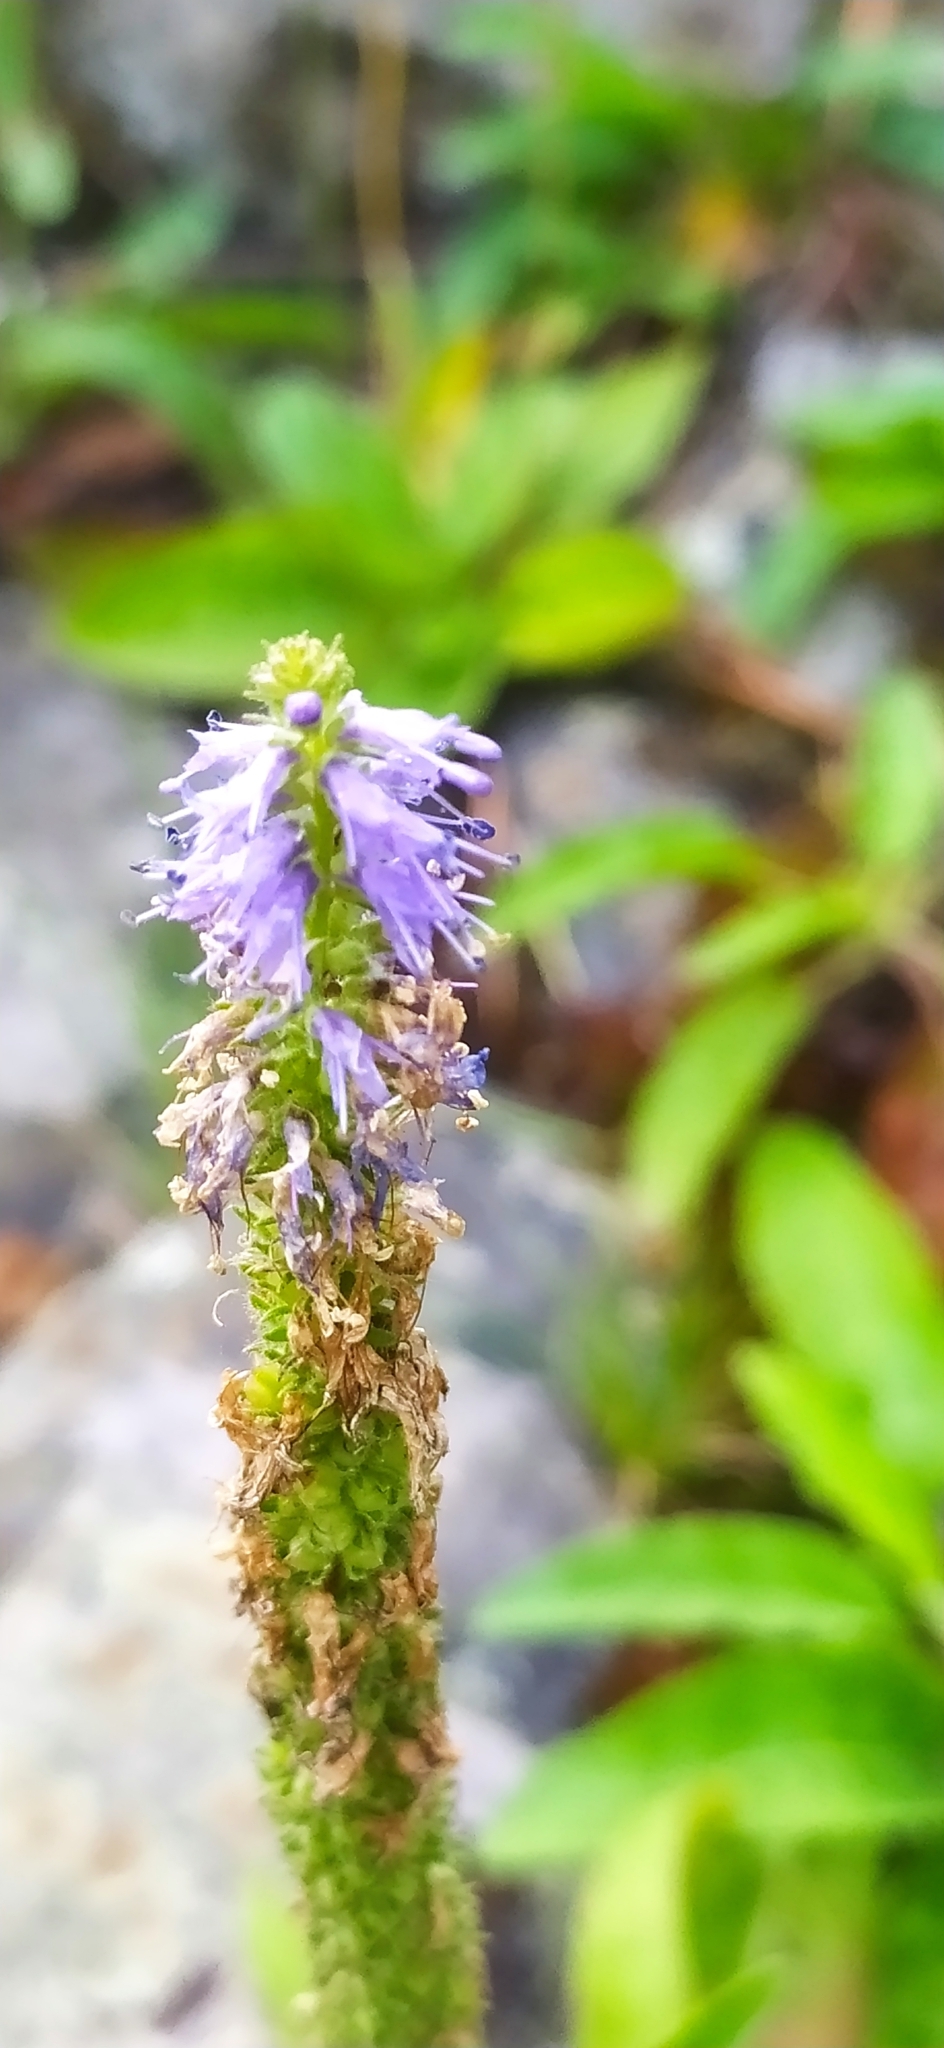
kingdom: Plantae
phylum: Tracheophyta
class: Magnoliopsida
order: Lamiales
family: Plantaginaceae
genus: Veronica
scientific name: Veronica spicata
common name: Spiked speedwell
